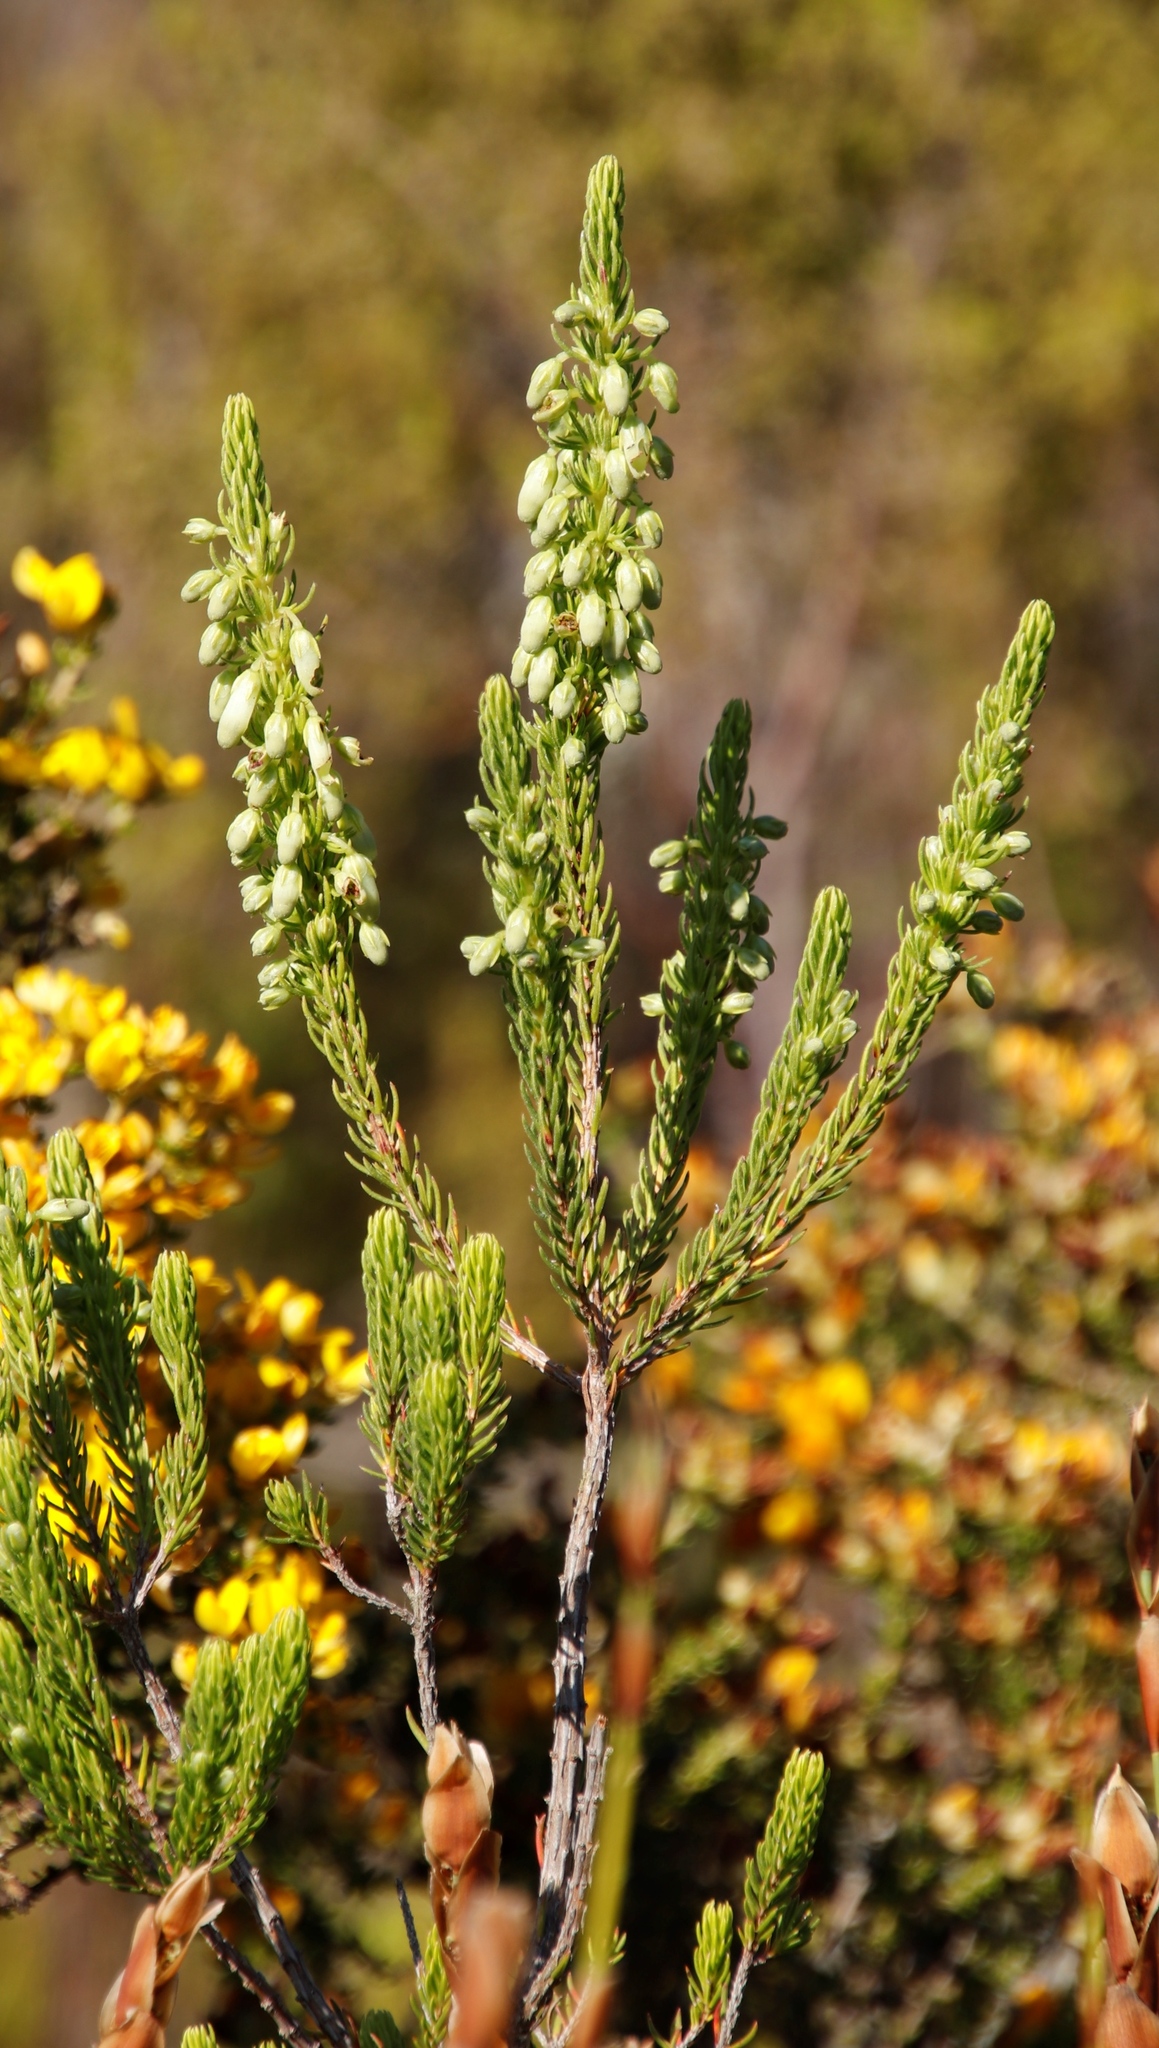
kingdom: Plantae
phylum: Tracheophyta
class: Magnoliopsida
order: Ericales
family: Ericaceae
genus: Erica
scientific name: Erica mammosa
